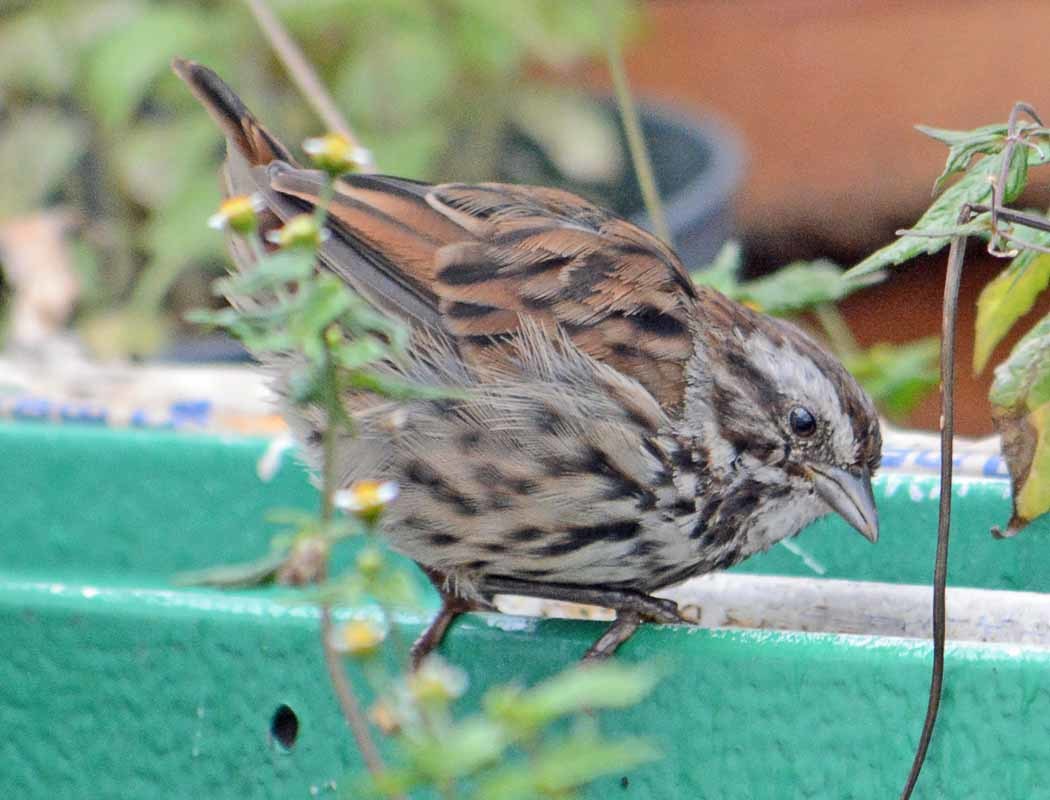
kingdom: Animalia
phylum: Chordata
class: Aves
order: Passeriformes
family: Passerellidae
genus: Melospiza
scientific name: Melospiza melodia
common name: Song sparrow
